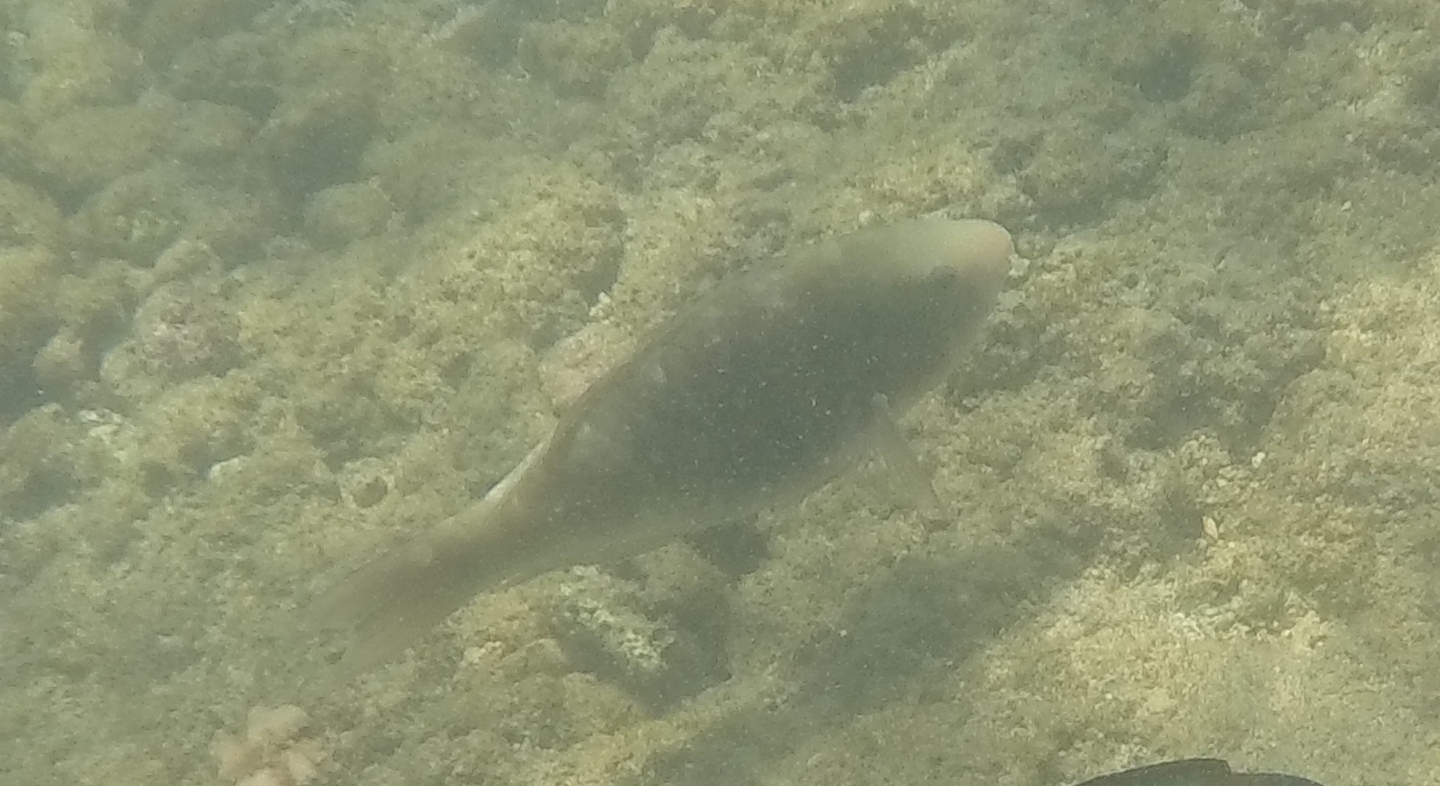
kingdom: Animalia
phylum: Chordata
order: Perciformes
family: Scaridae
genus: Scarus
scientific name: Scarus psittacus
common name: Palenose parrotfish
